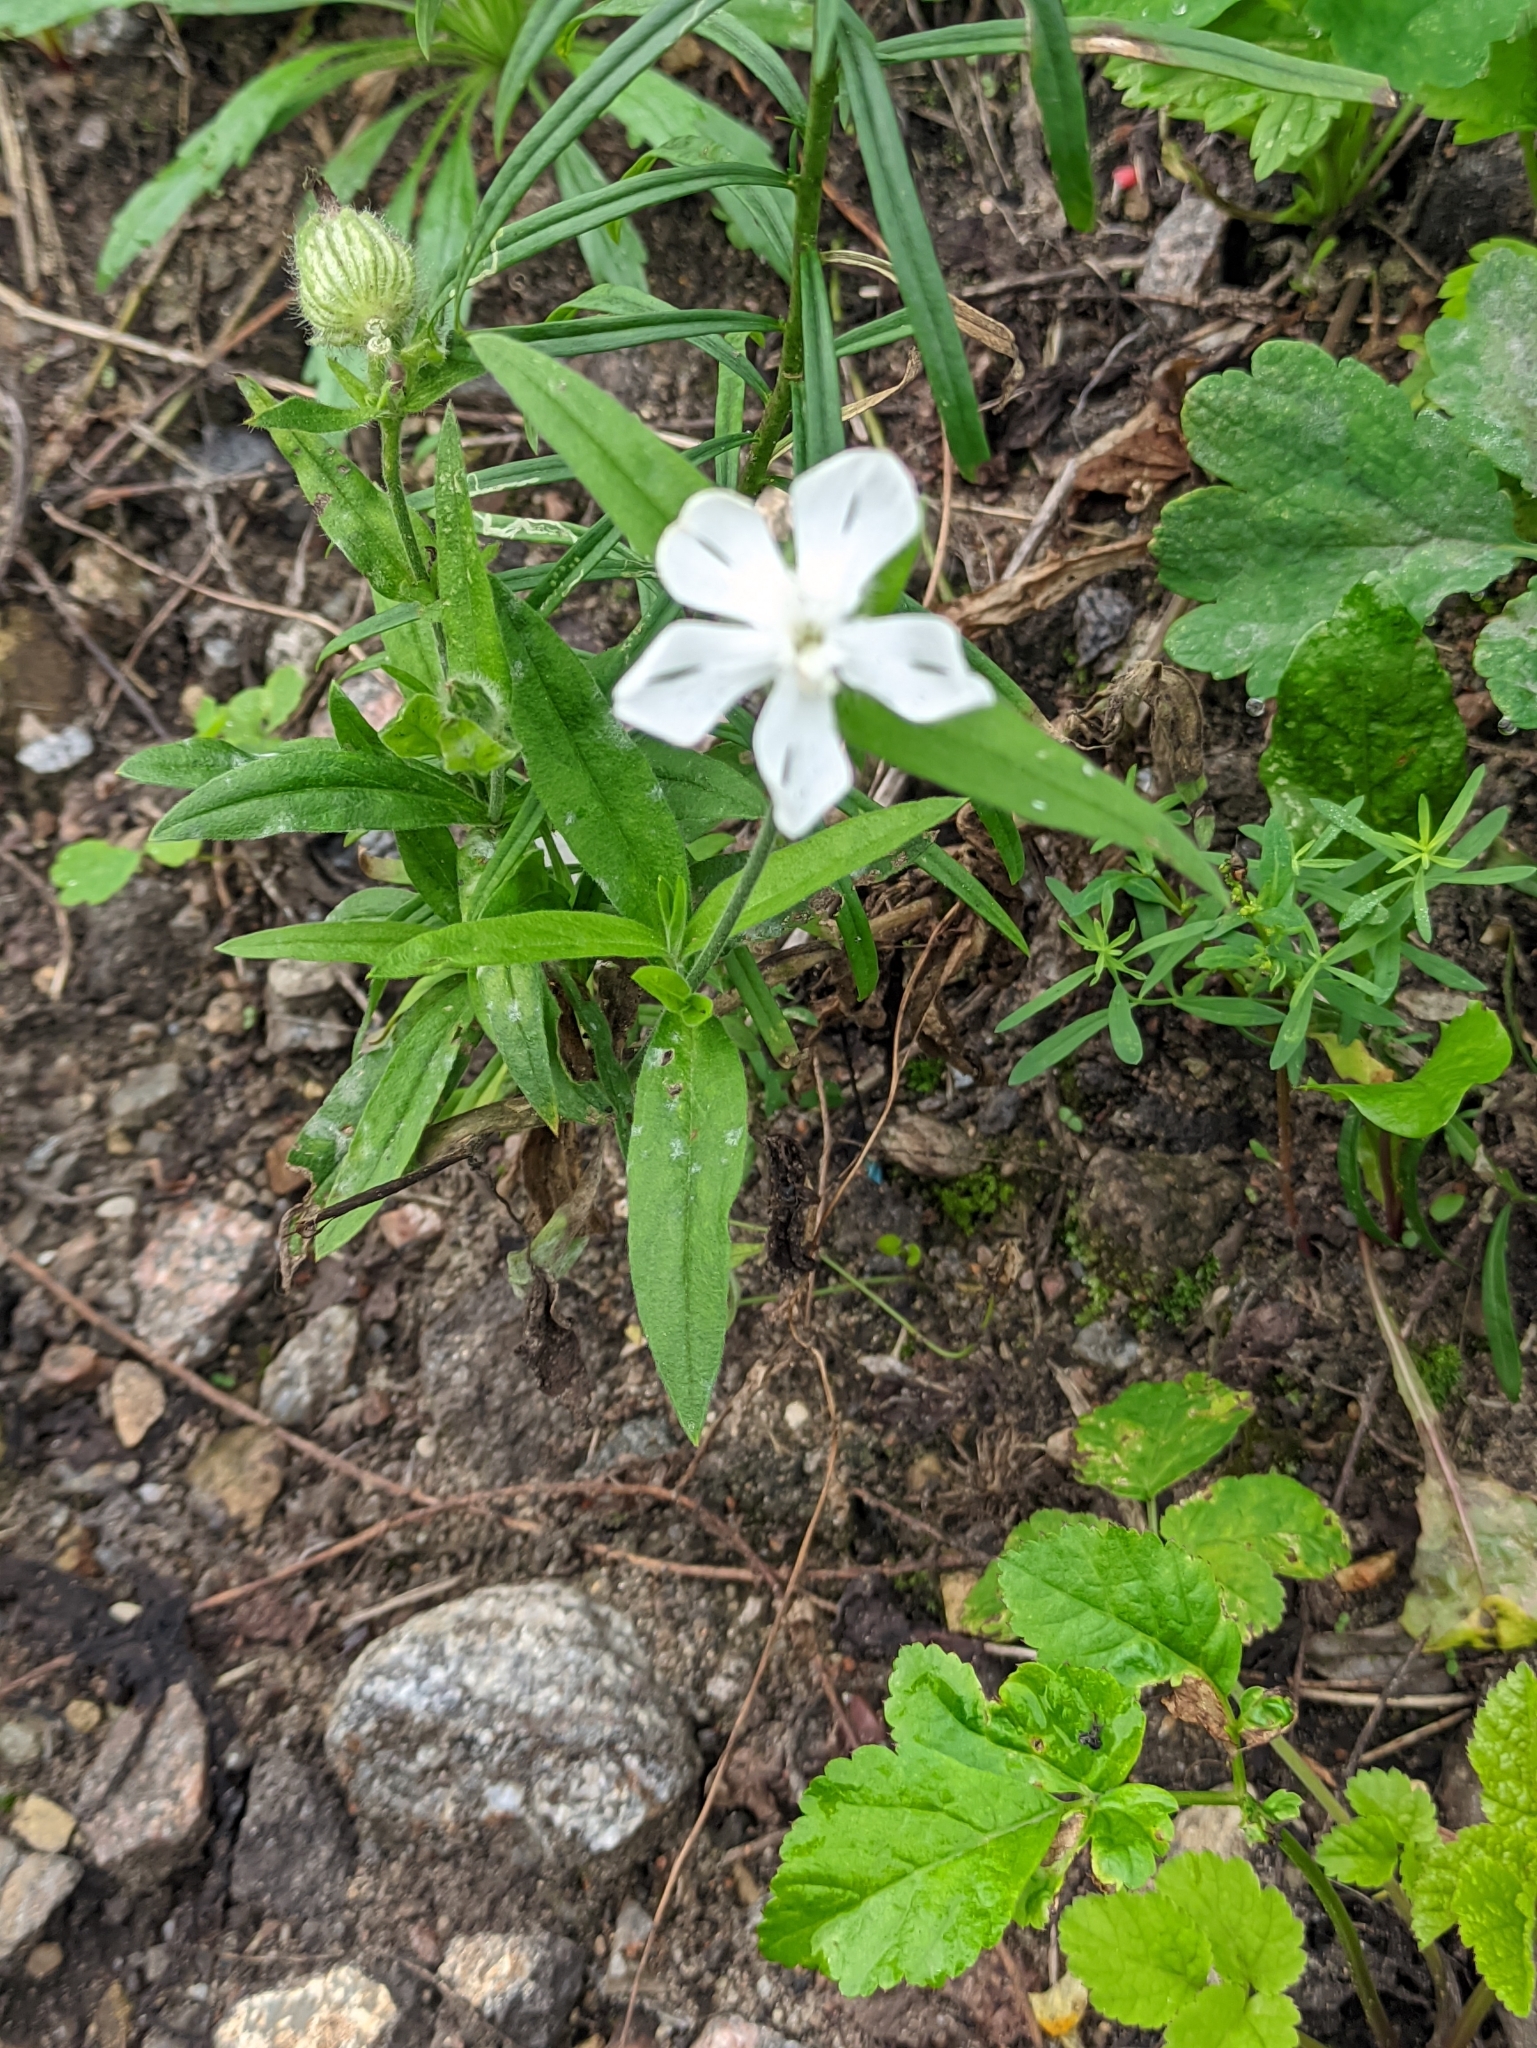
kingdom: Plantae
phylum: Tracheophyta
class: Magnoliopsida
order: Caryophyllales
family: Caryophyllaceae
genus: Silene
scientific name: Silene latifolia
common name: White campion
